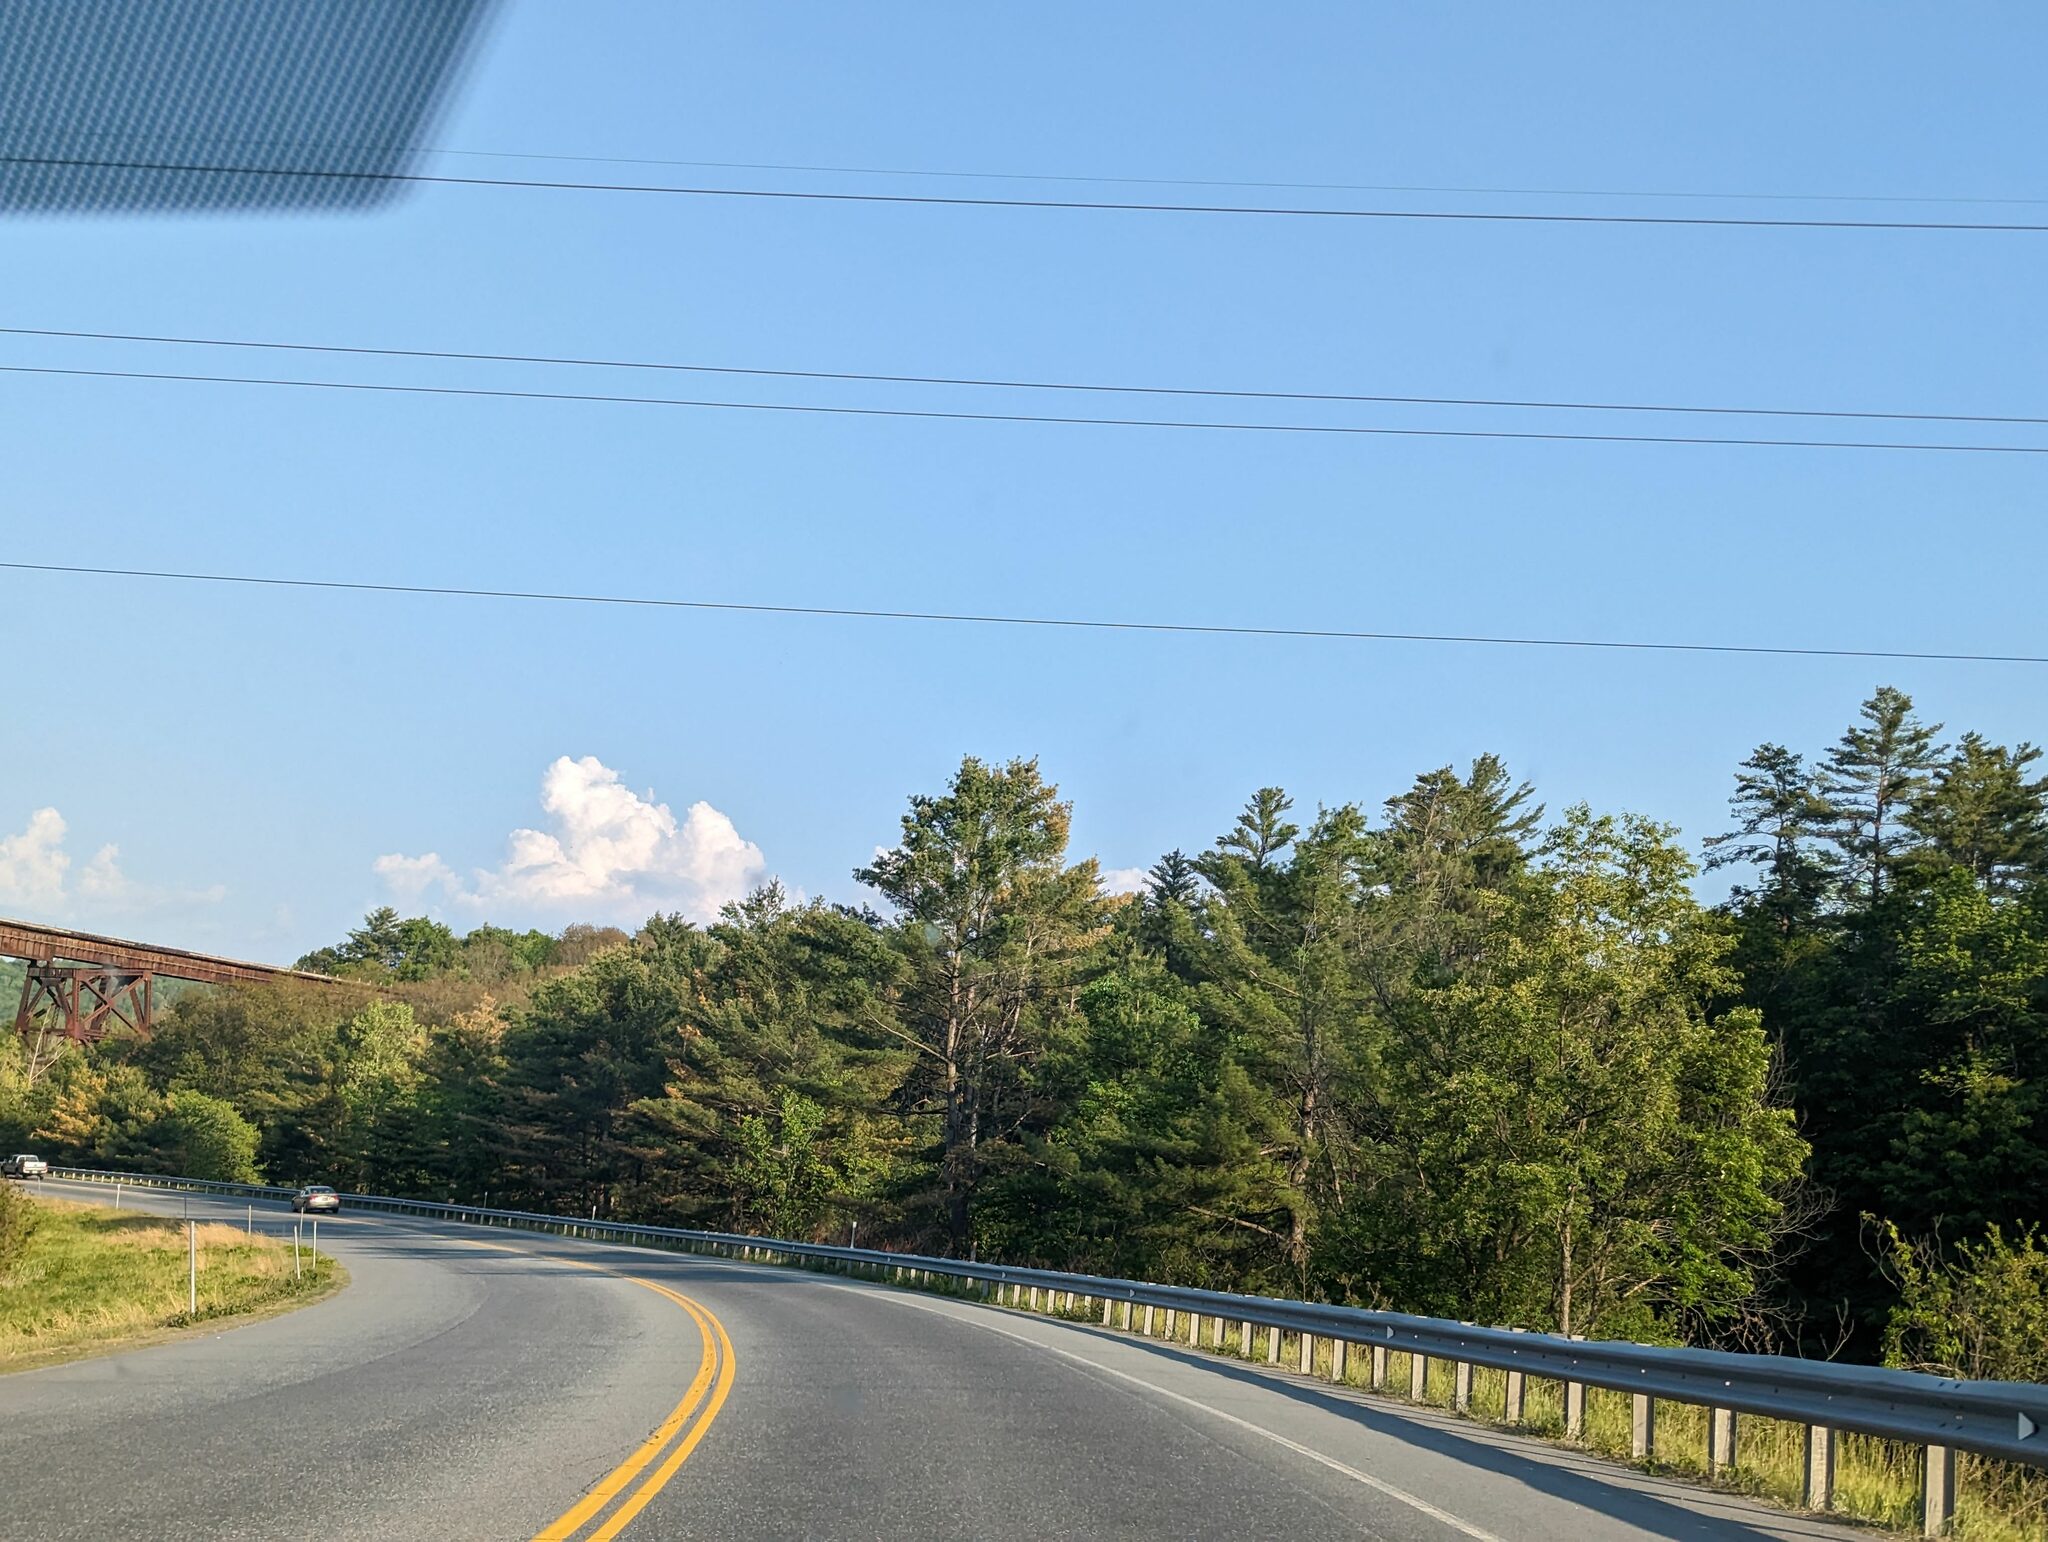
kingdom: Plantae
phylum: Tracheophyta
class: Pinopsida
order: Pinales
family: Pinaceae
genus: Pinus
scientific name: Pinus strobus
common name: Weymouth pine
